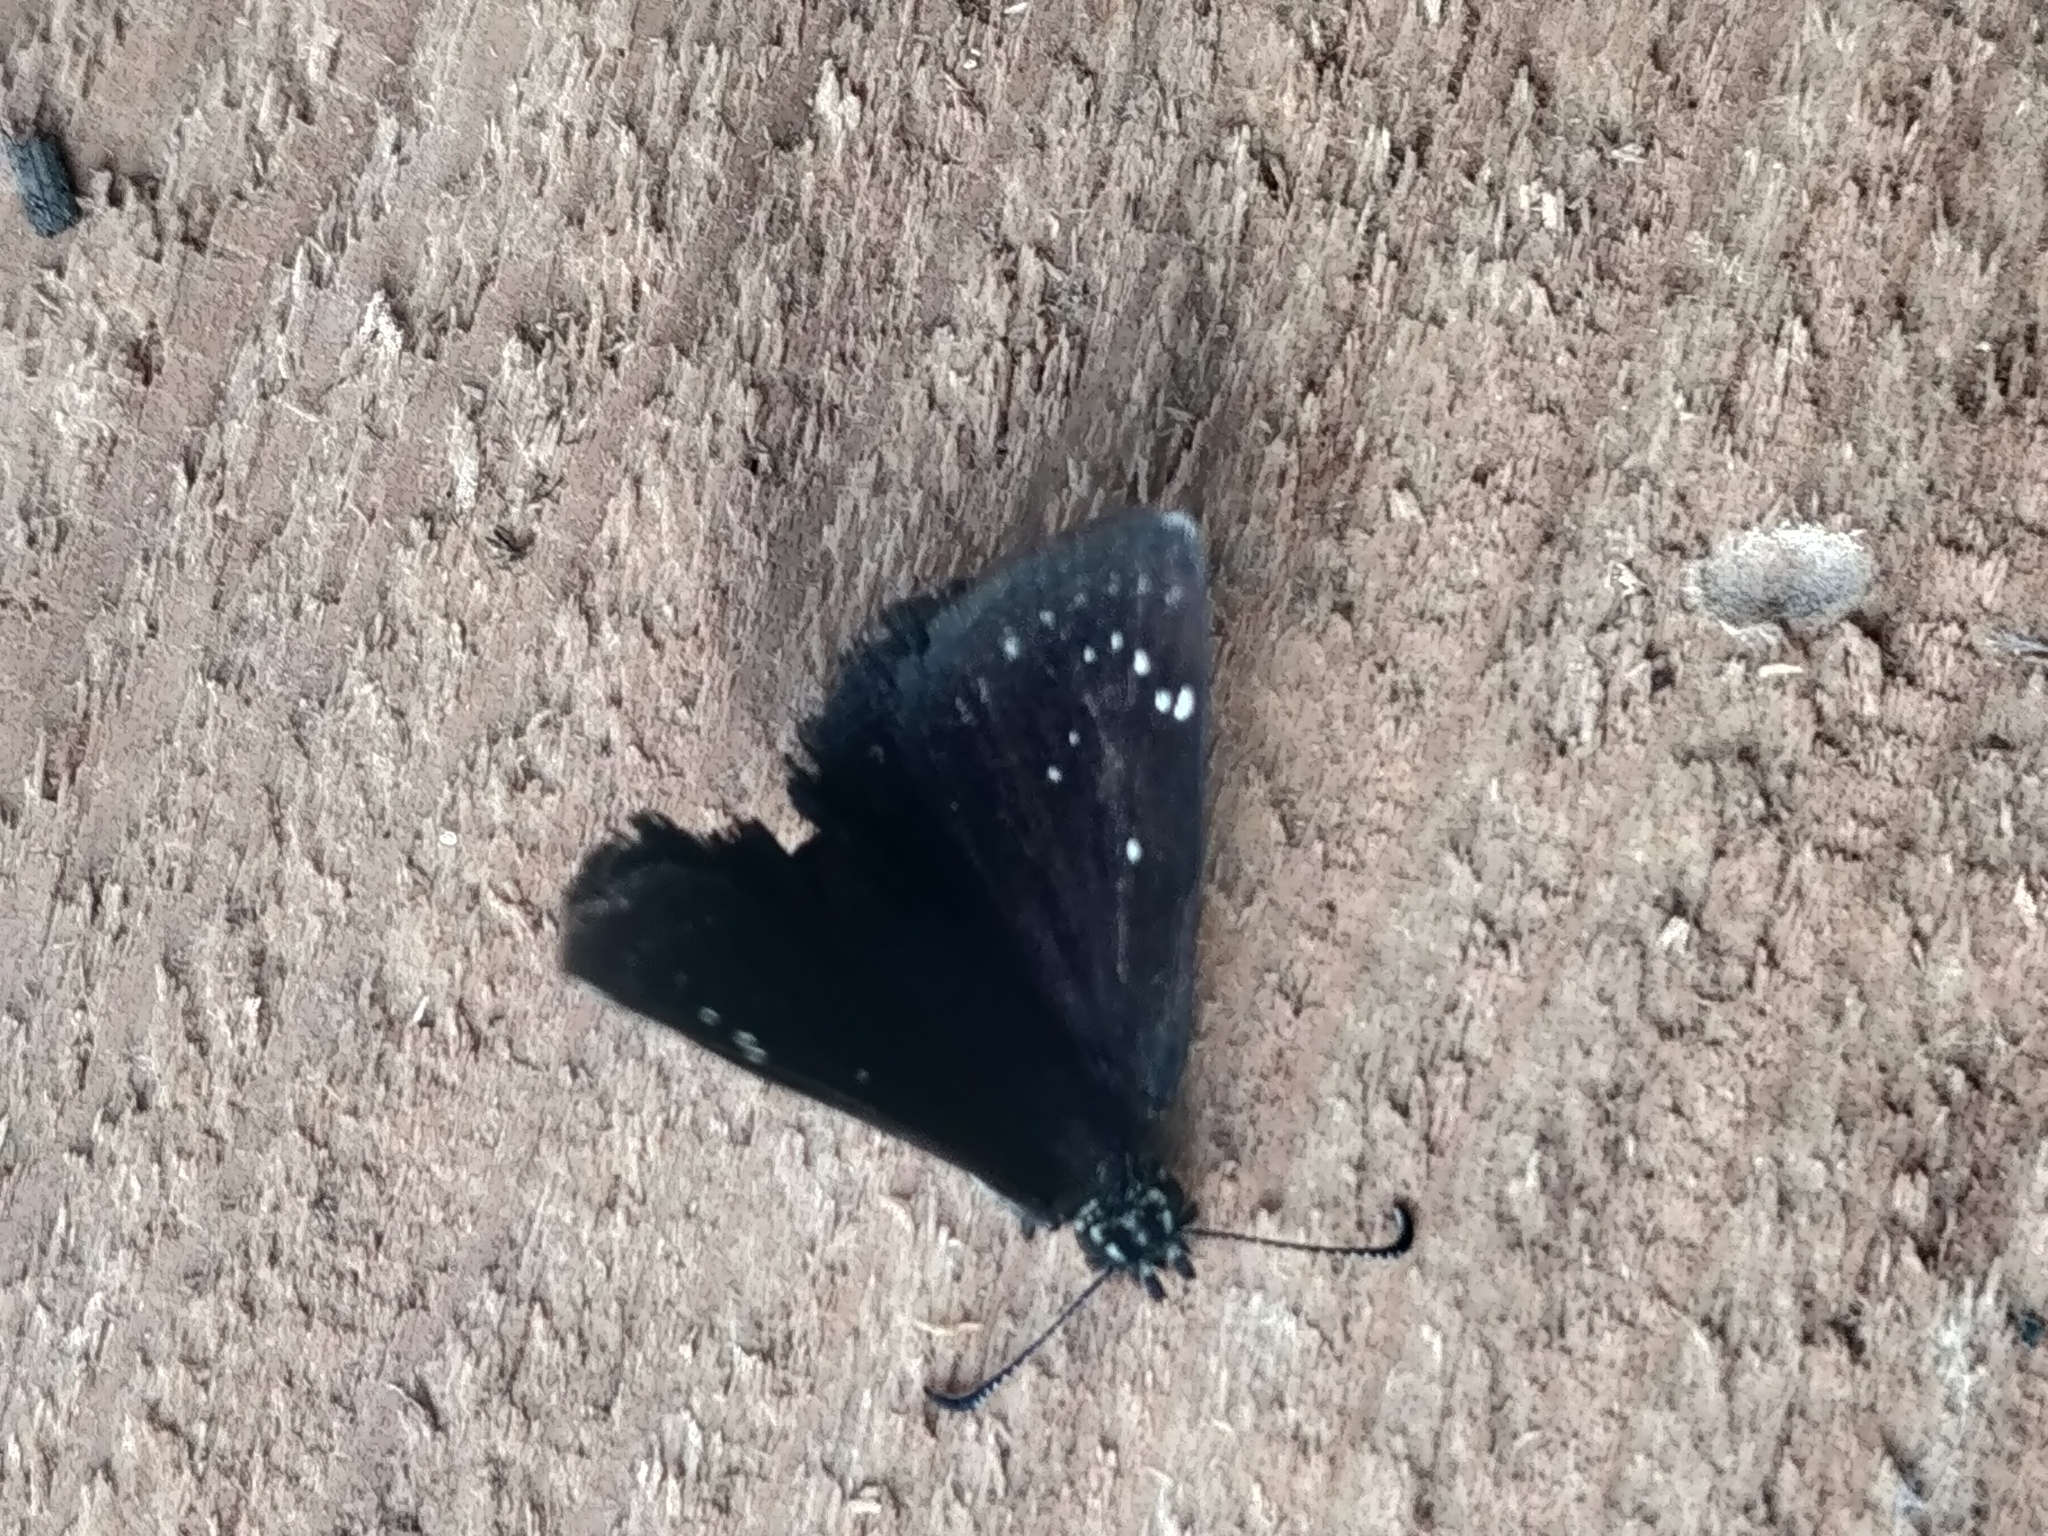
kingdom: Animalia
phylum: Arthropoda
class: Insecta
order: Lepidoptera
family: Hesperiidae
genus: Pholisora
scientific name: Pholisora catullus
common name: Common sootywing
